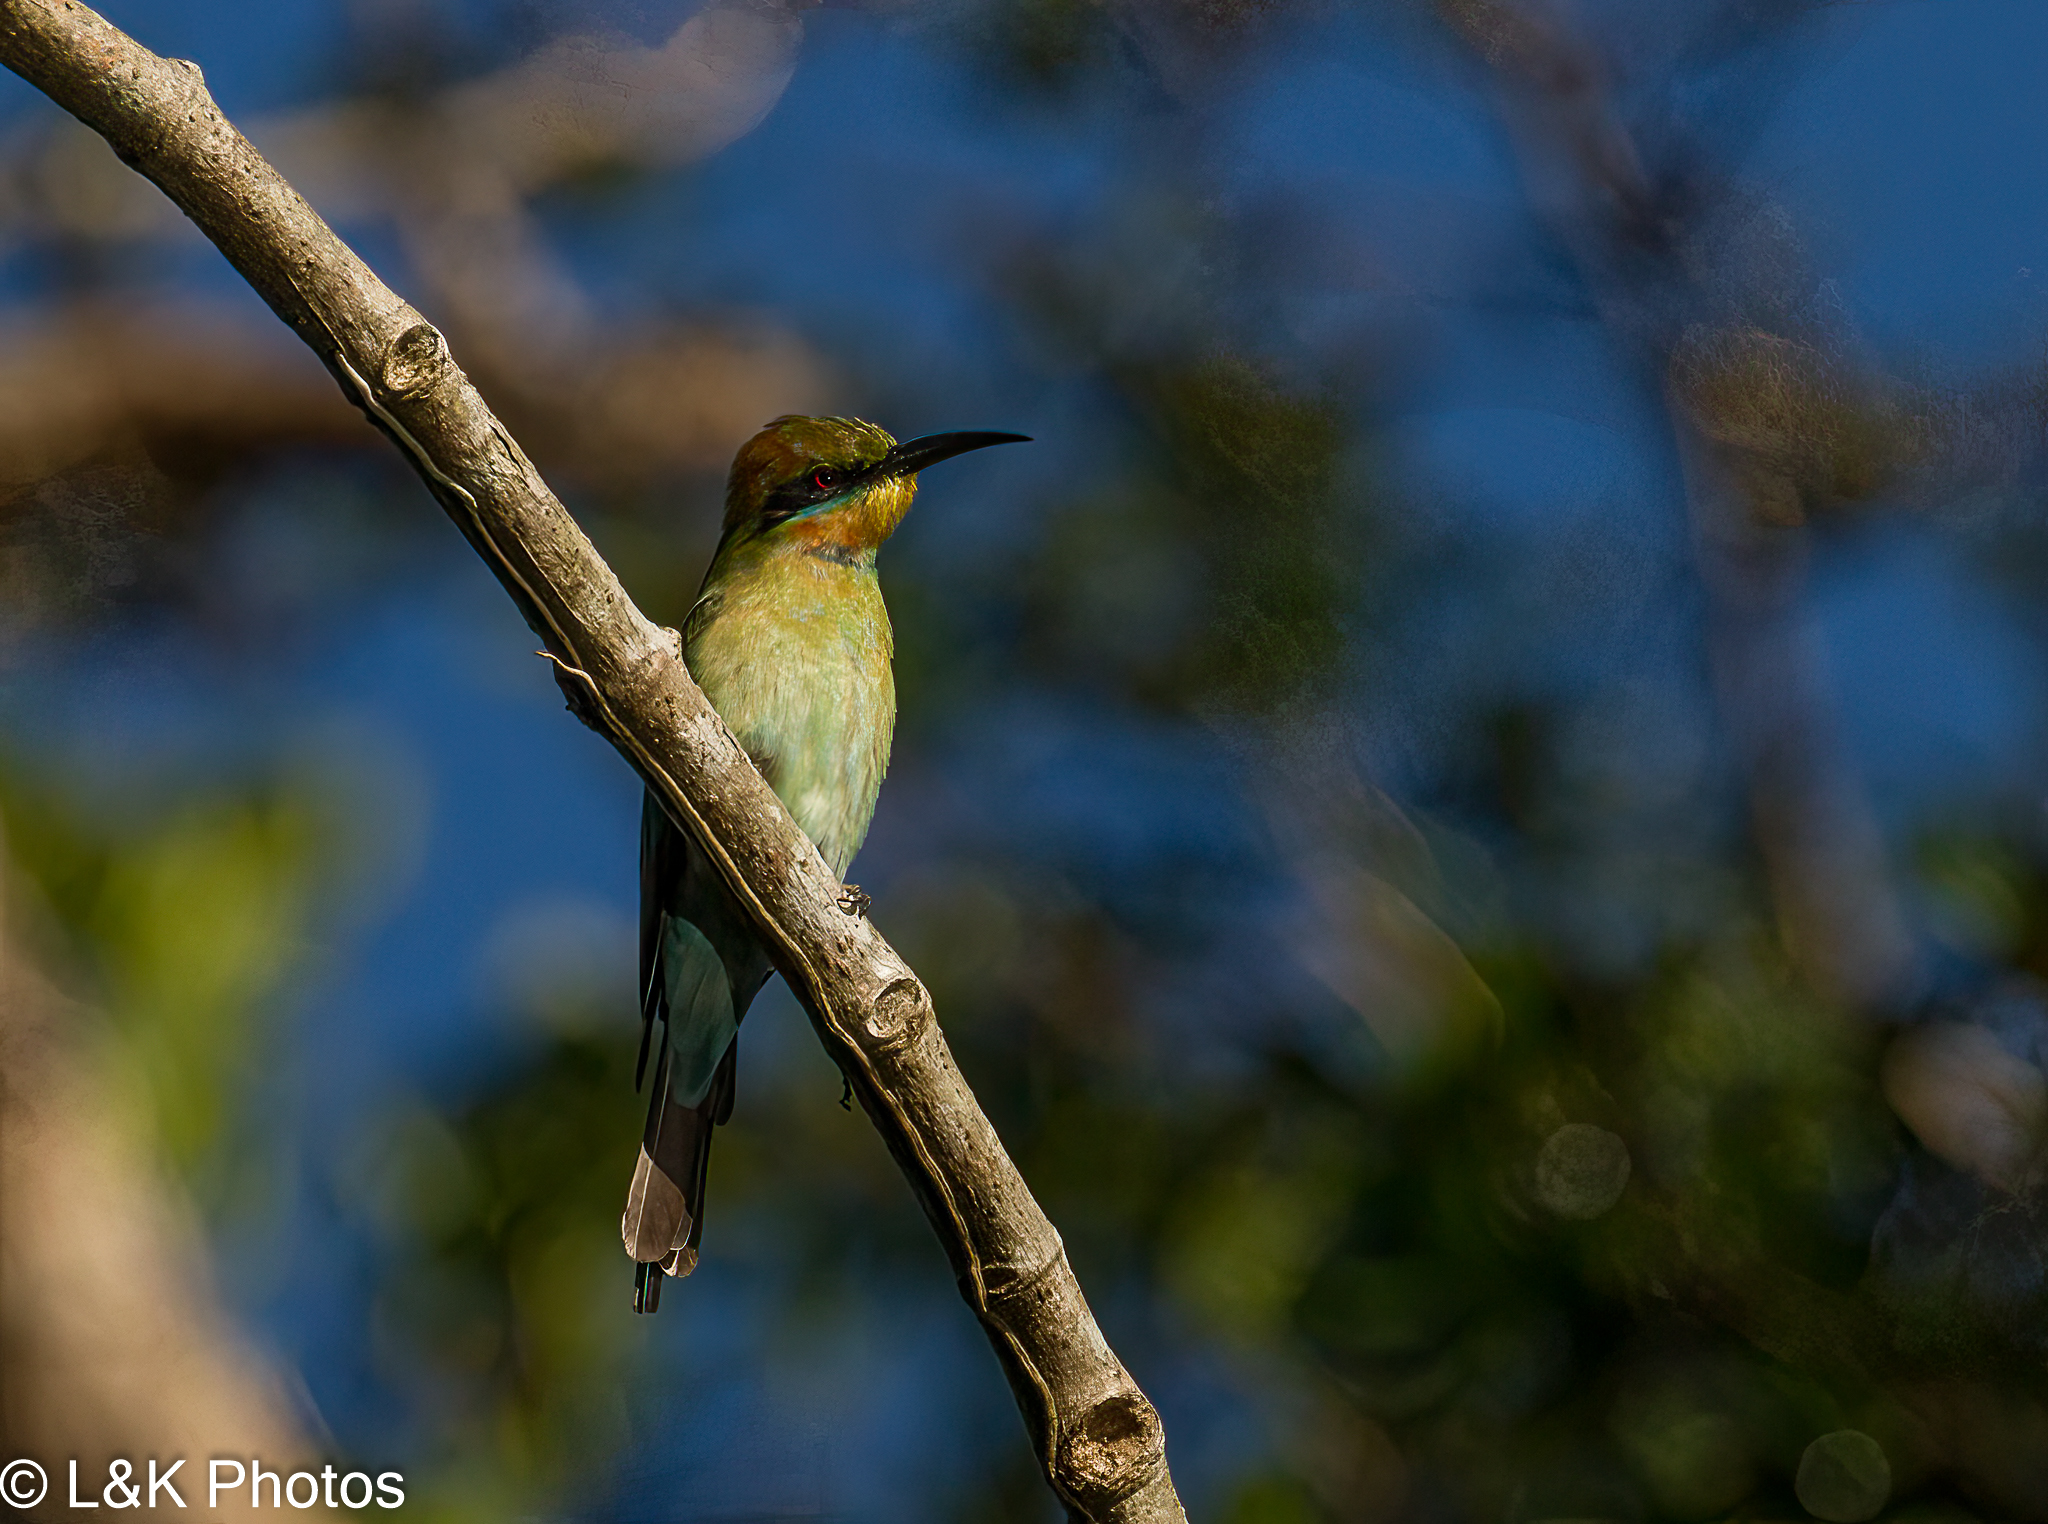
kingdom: Animalia
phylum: Chordata
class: Aves
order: Coraciiformes
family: Meropidae
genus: Merops
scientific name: Merops ornatus
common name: Rainbow bee-eater
